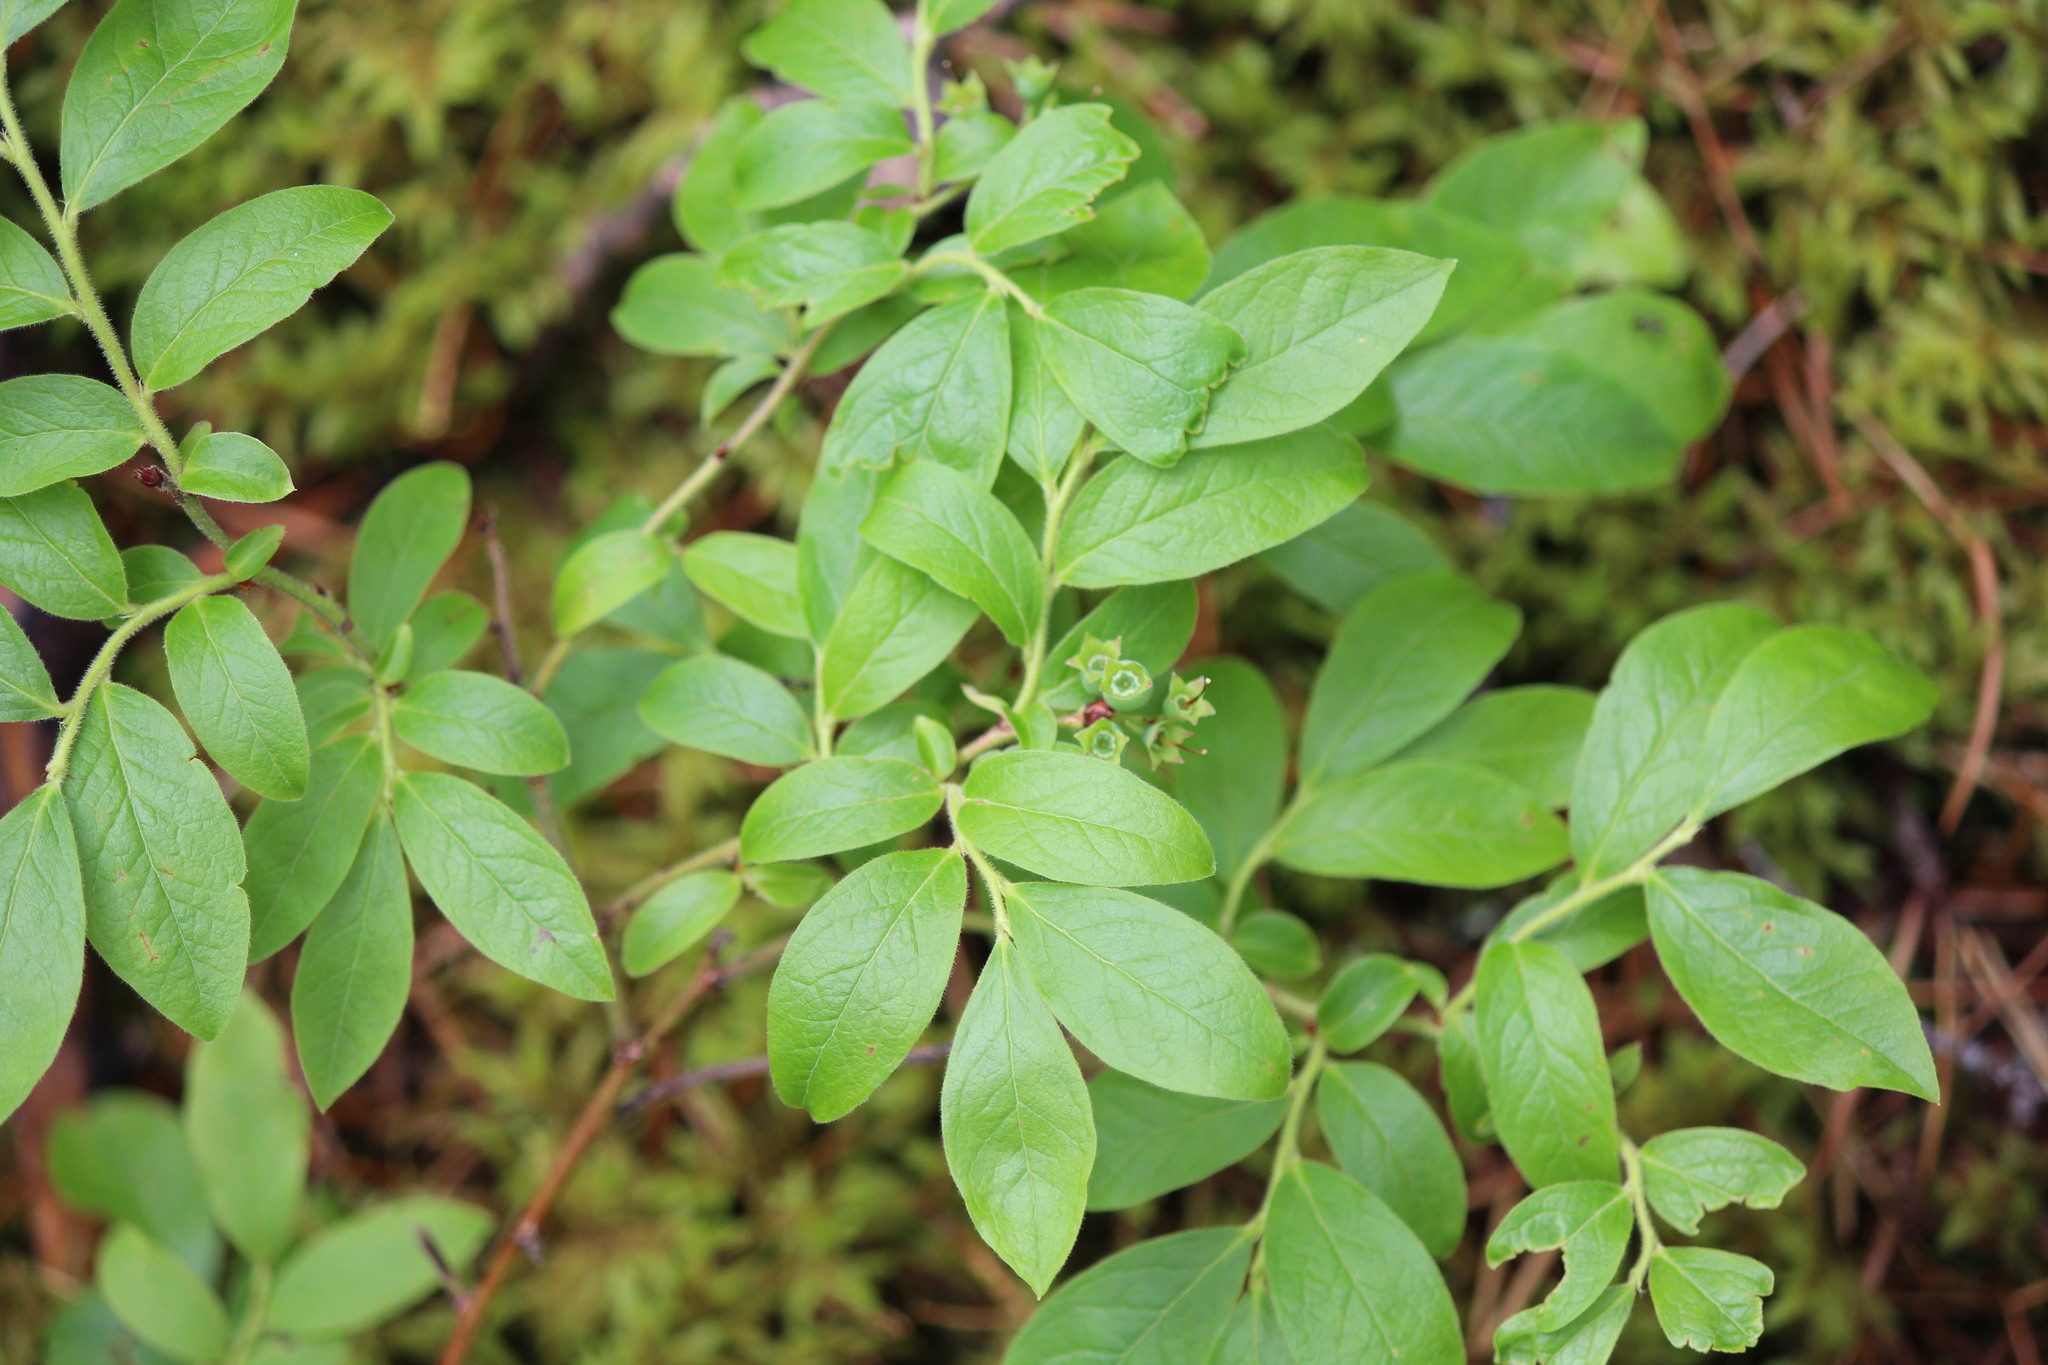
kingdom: Plantae
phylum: Tracheophyta
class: Magnoliopsida
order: Ericales
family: Ericaceae
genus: Vaccinium
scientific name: Vaccinium myrtilloides
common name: Canada blueberry
